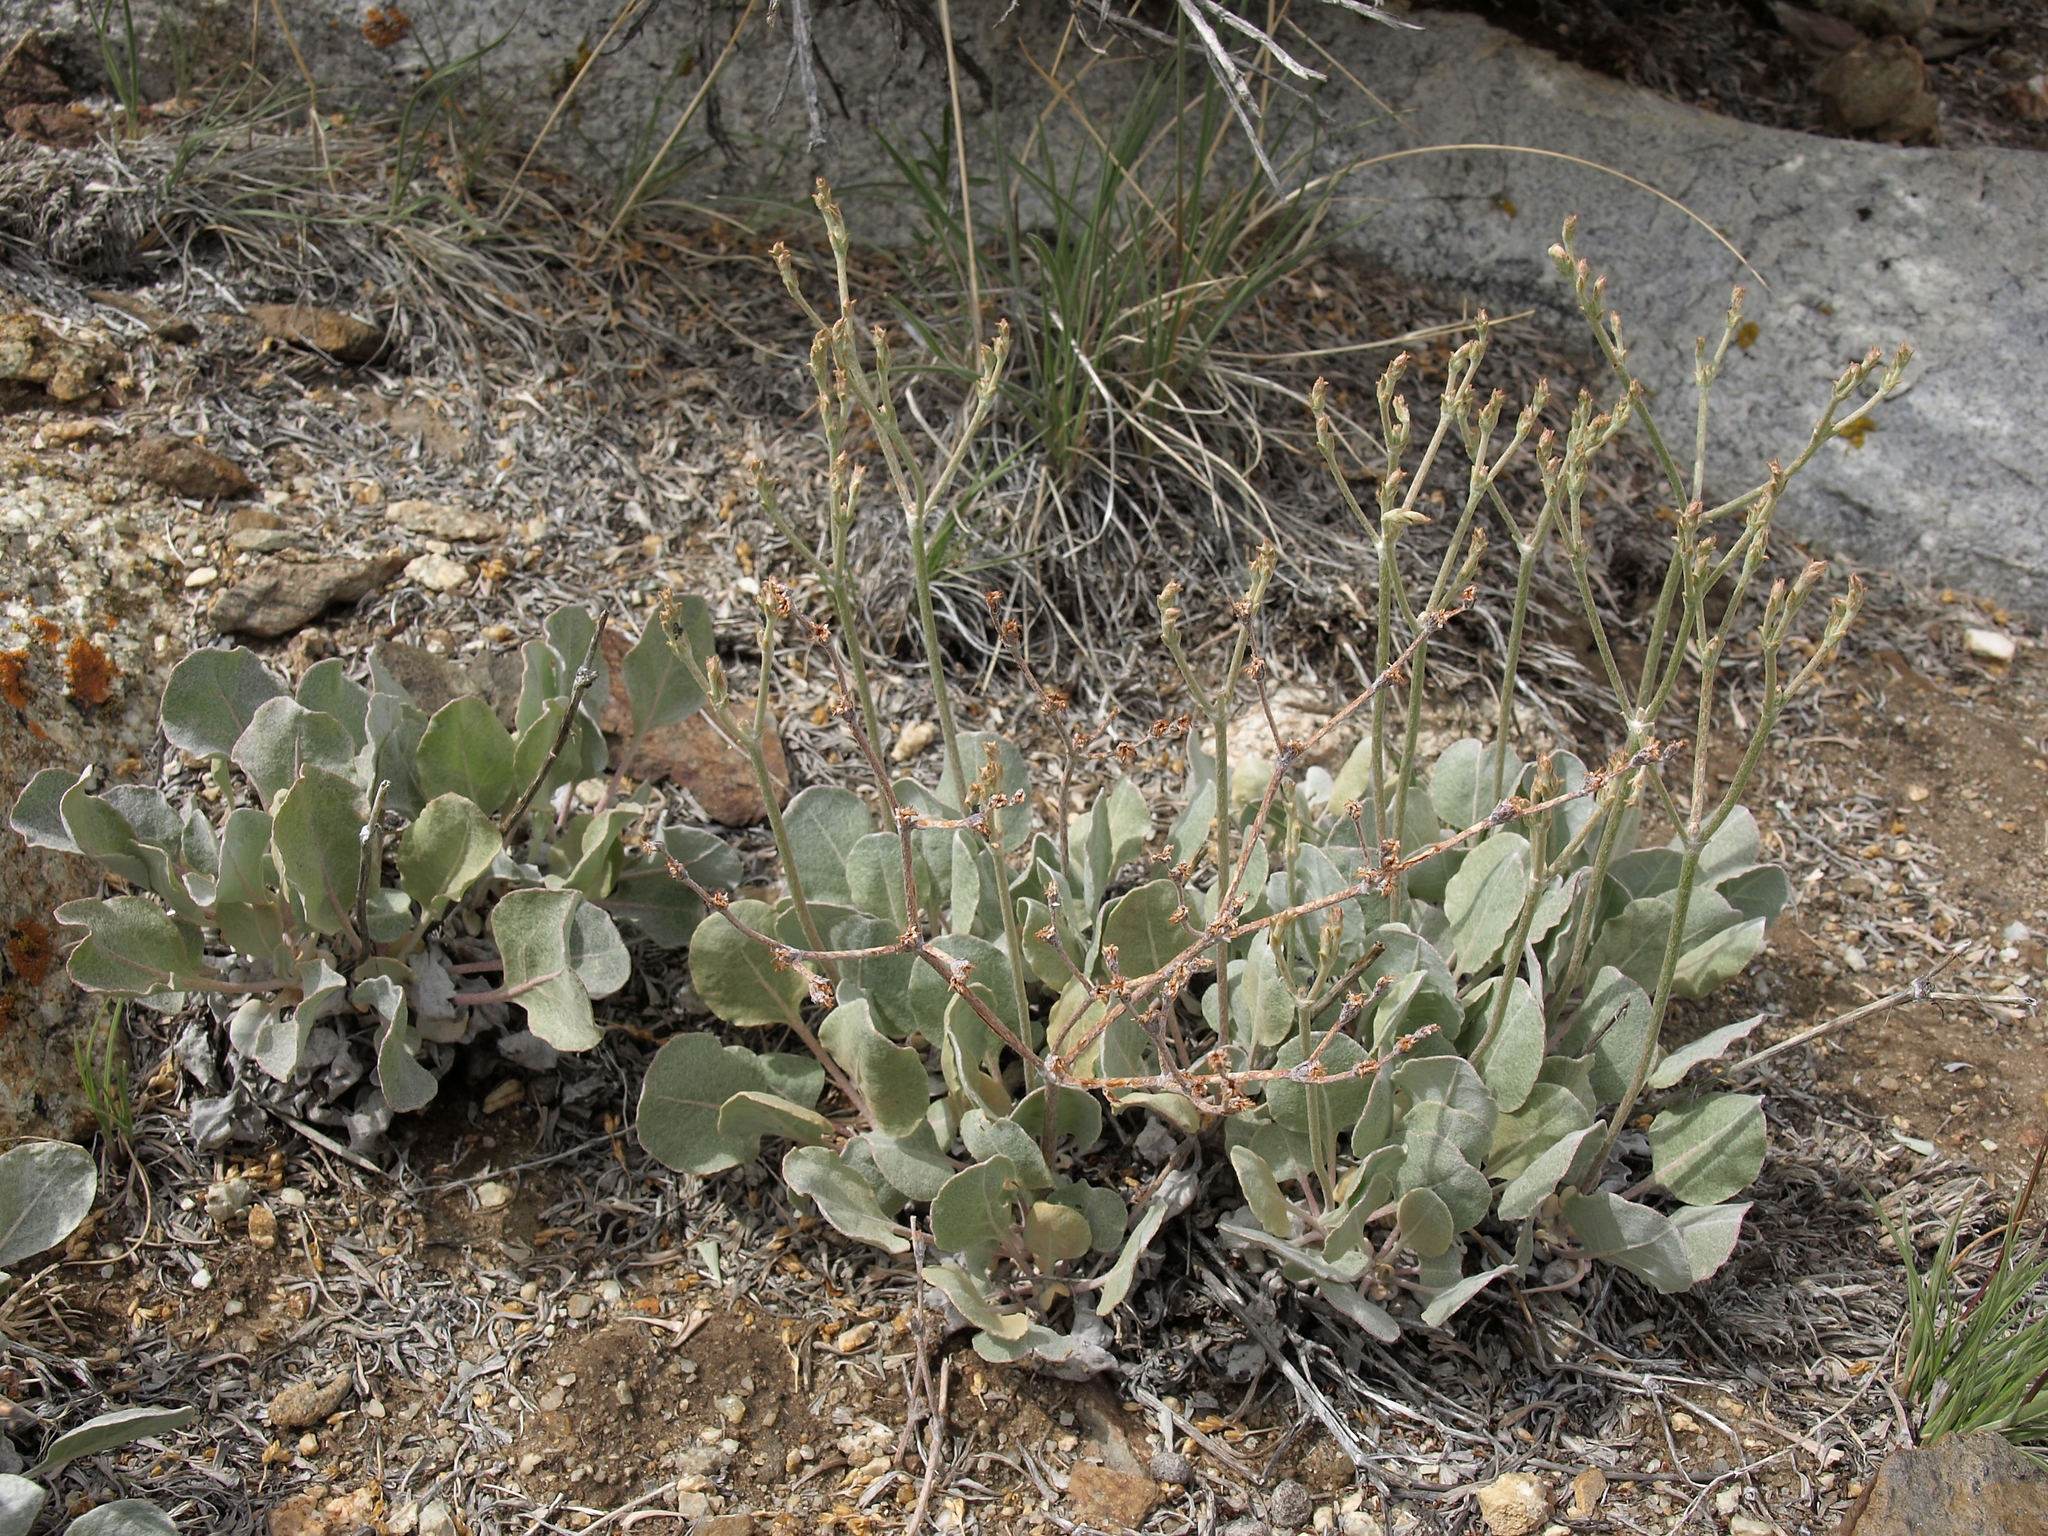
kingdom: Plantae
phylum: Tracheophyta
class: Magnoliopsida
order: Caryophyllales
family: Polygonaceae
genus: Eriogonum
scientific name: Eriogonum rupinum
